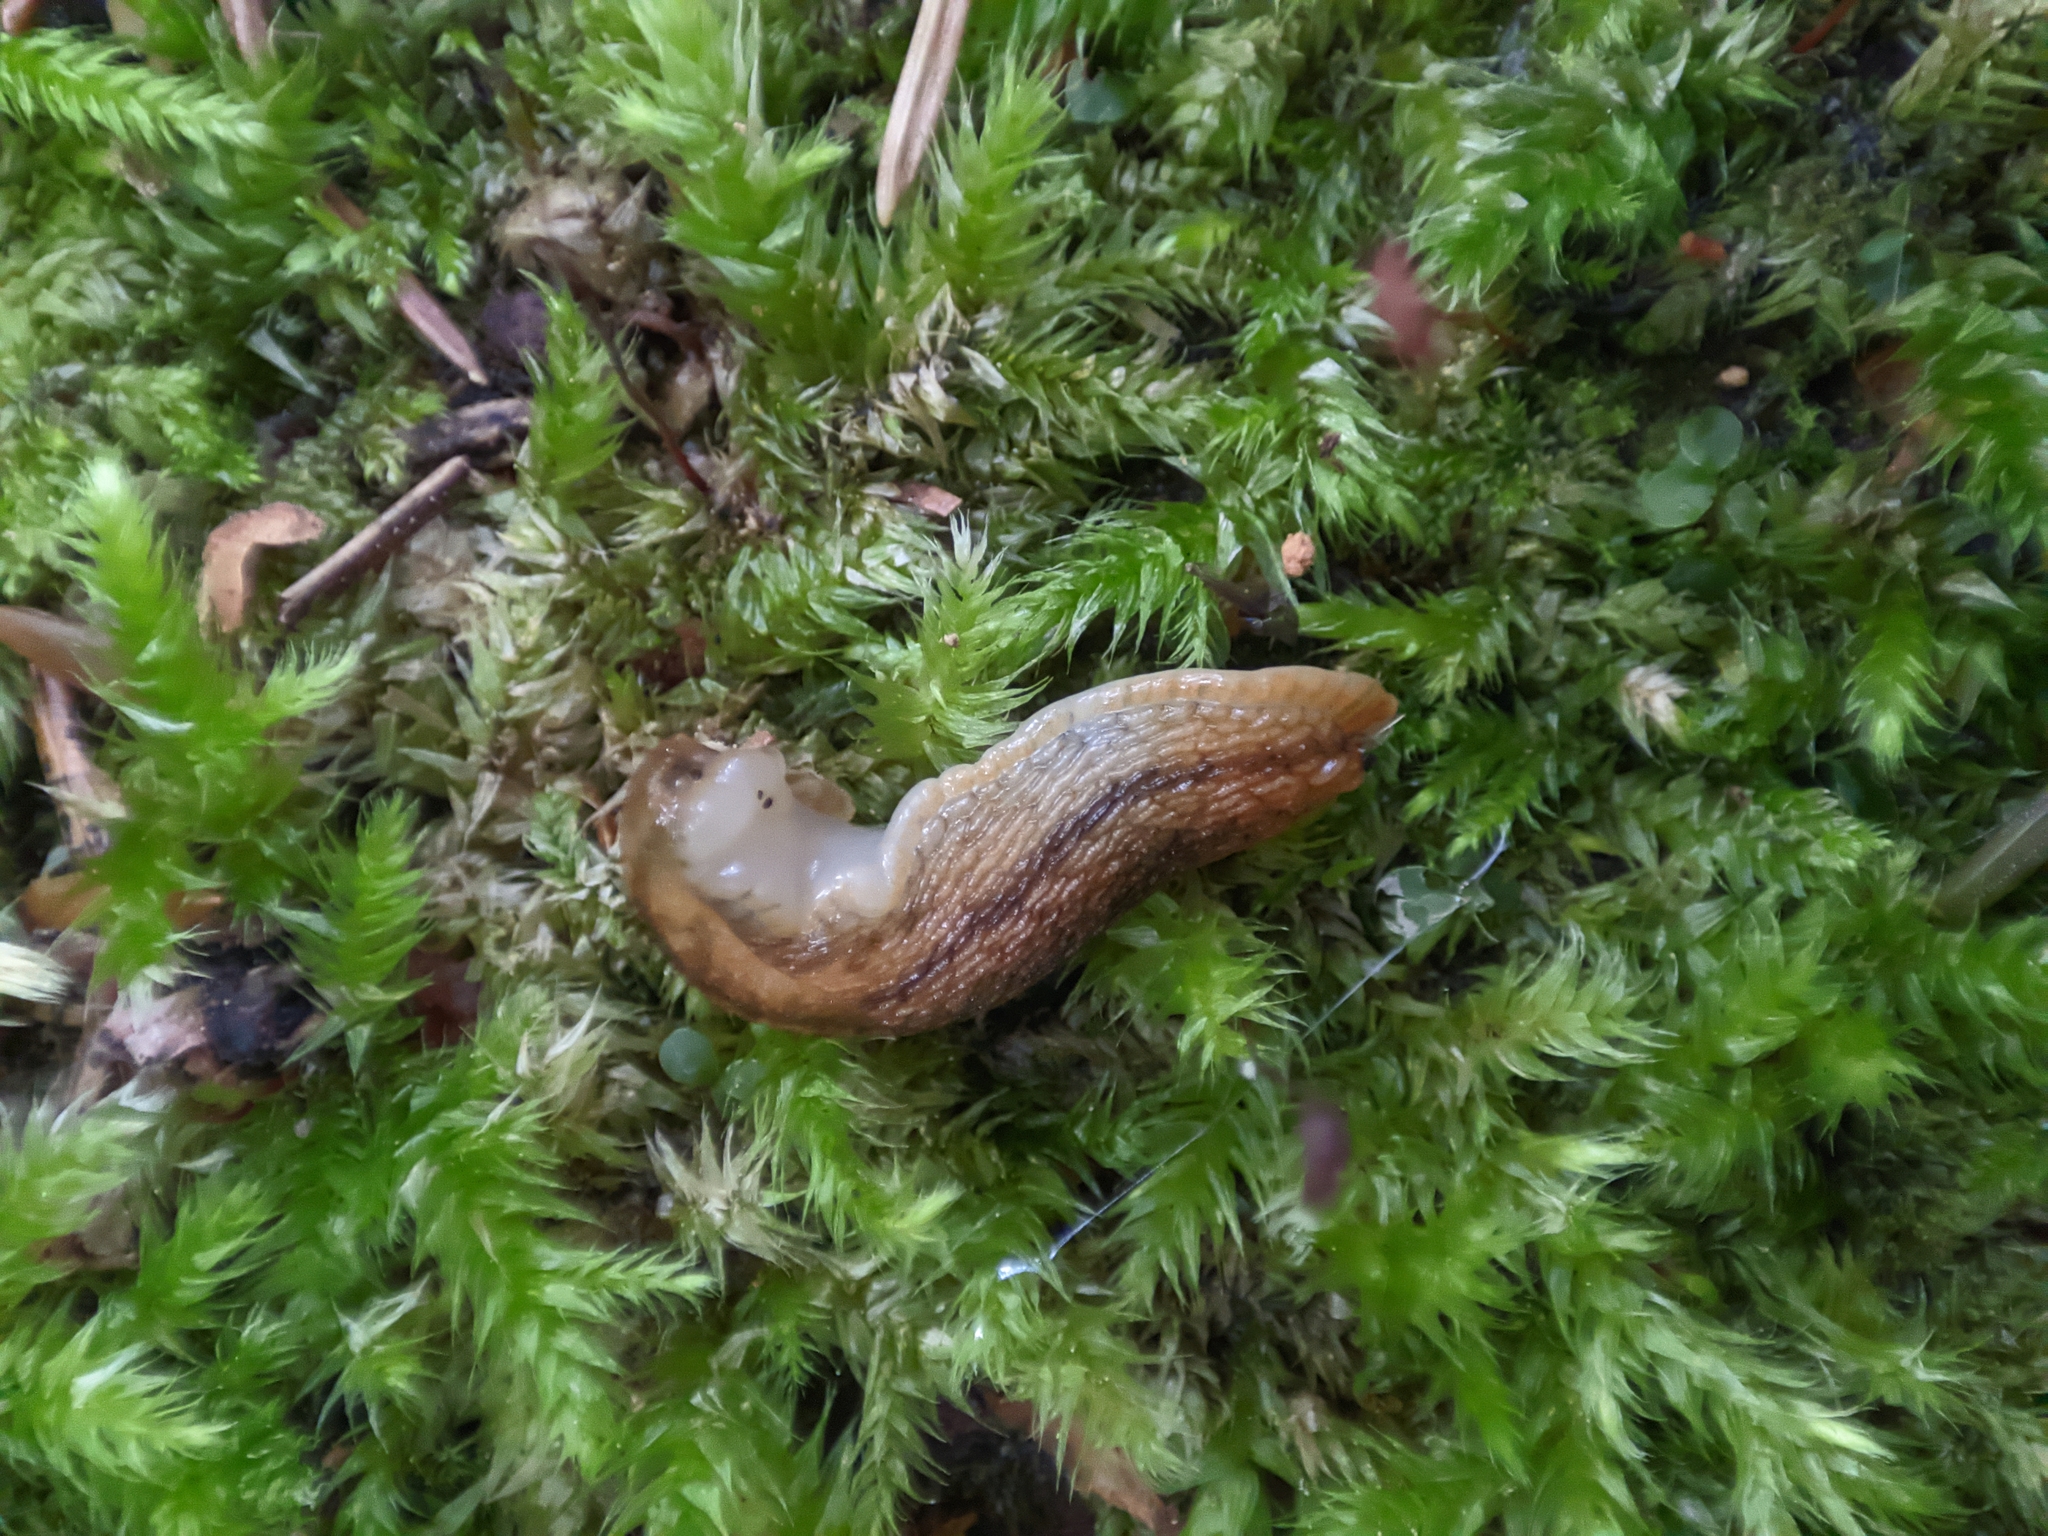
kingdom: Animalia
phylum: Mollusca
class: Gastropoda
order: Stylommatophora
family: Arionidae
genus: Arion
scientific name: Arion fuscus
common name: Northern dusky slug
